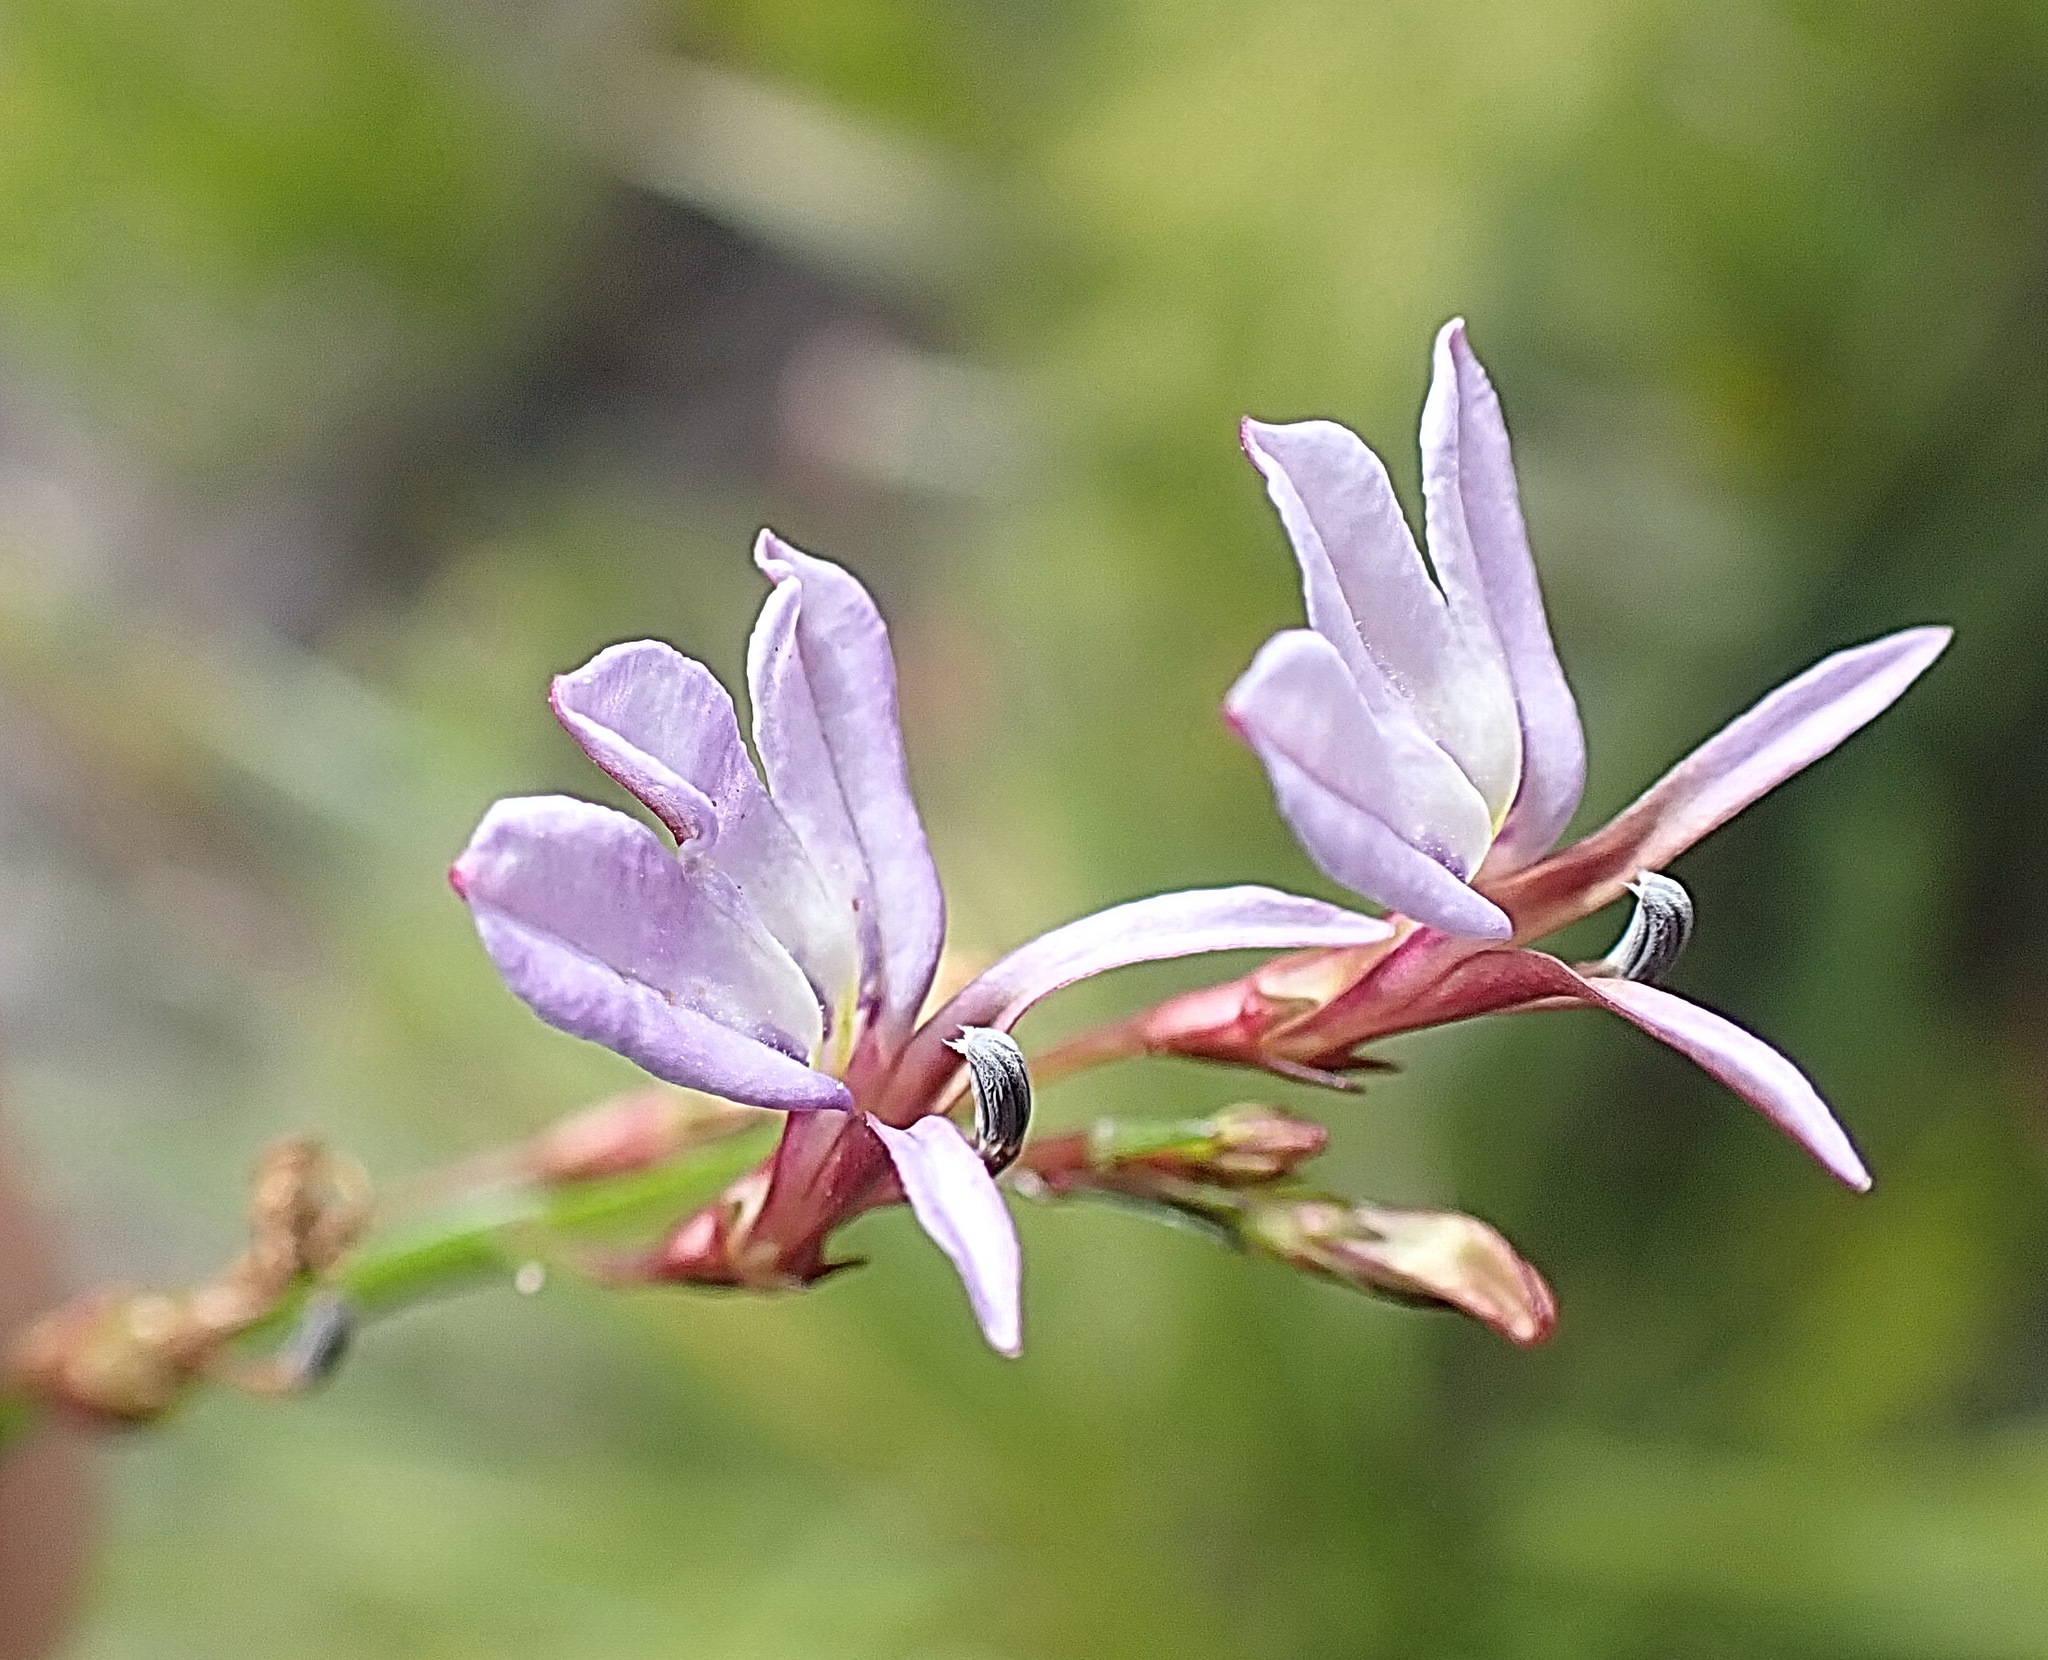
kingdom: Plantae
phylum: Tracheophyta
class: Magnoliopsida
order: Asterales
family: Campanulaceae
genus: Lobelia
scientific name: Lobelia anceps
